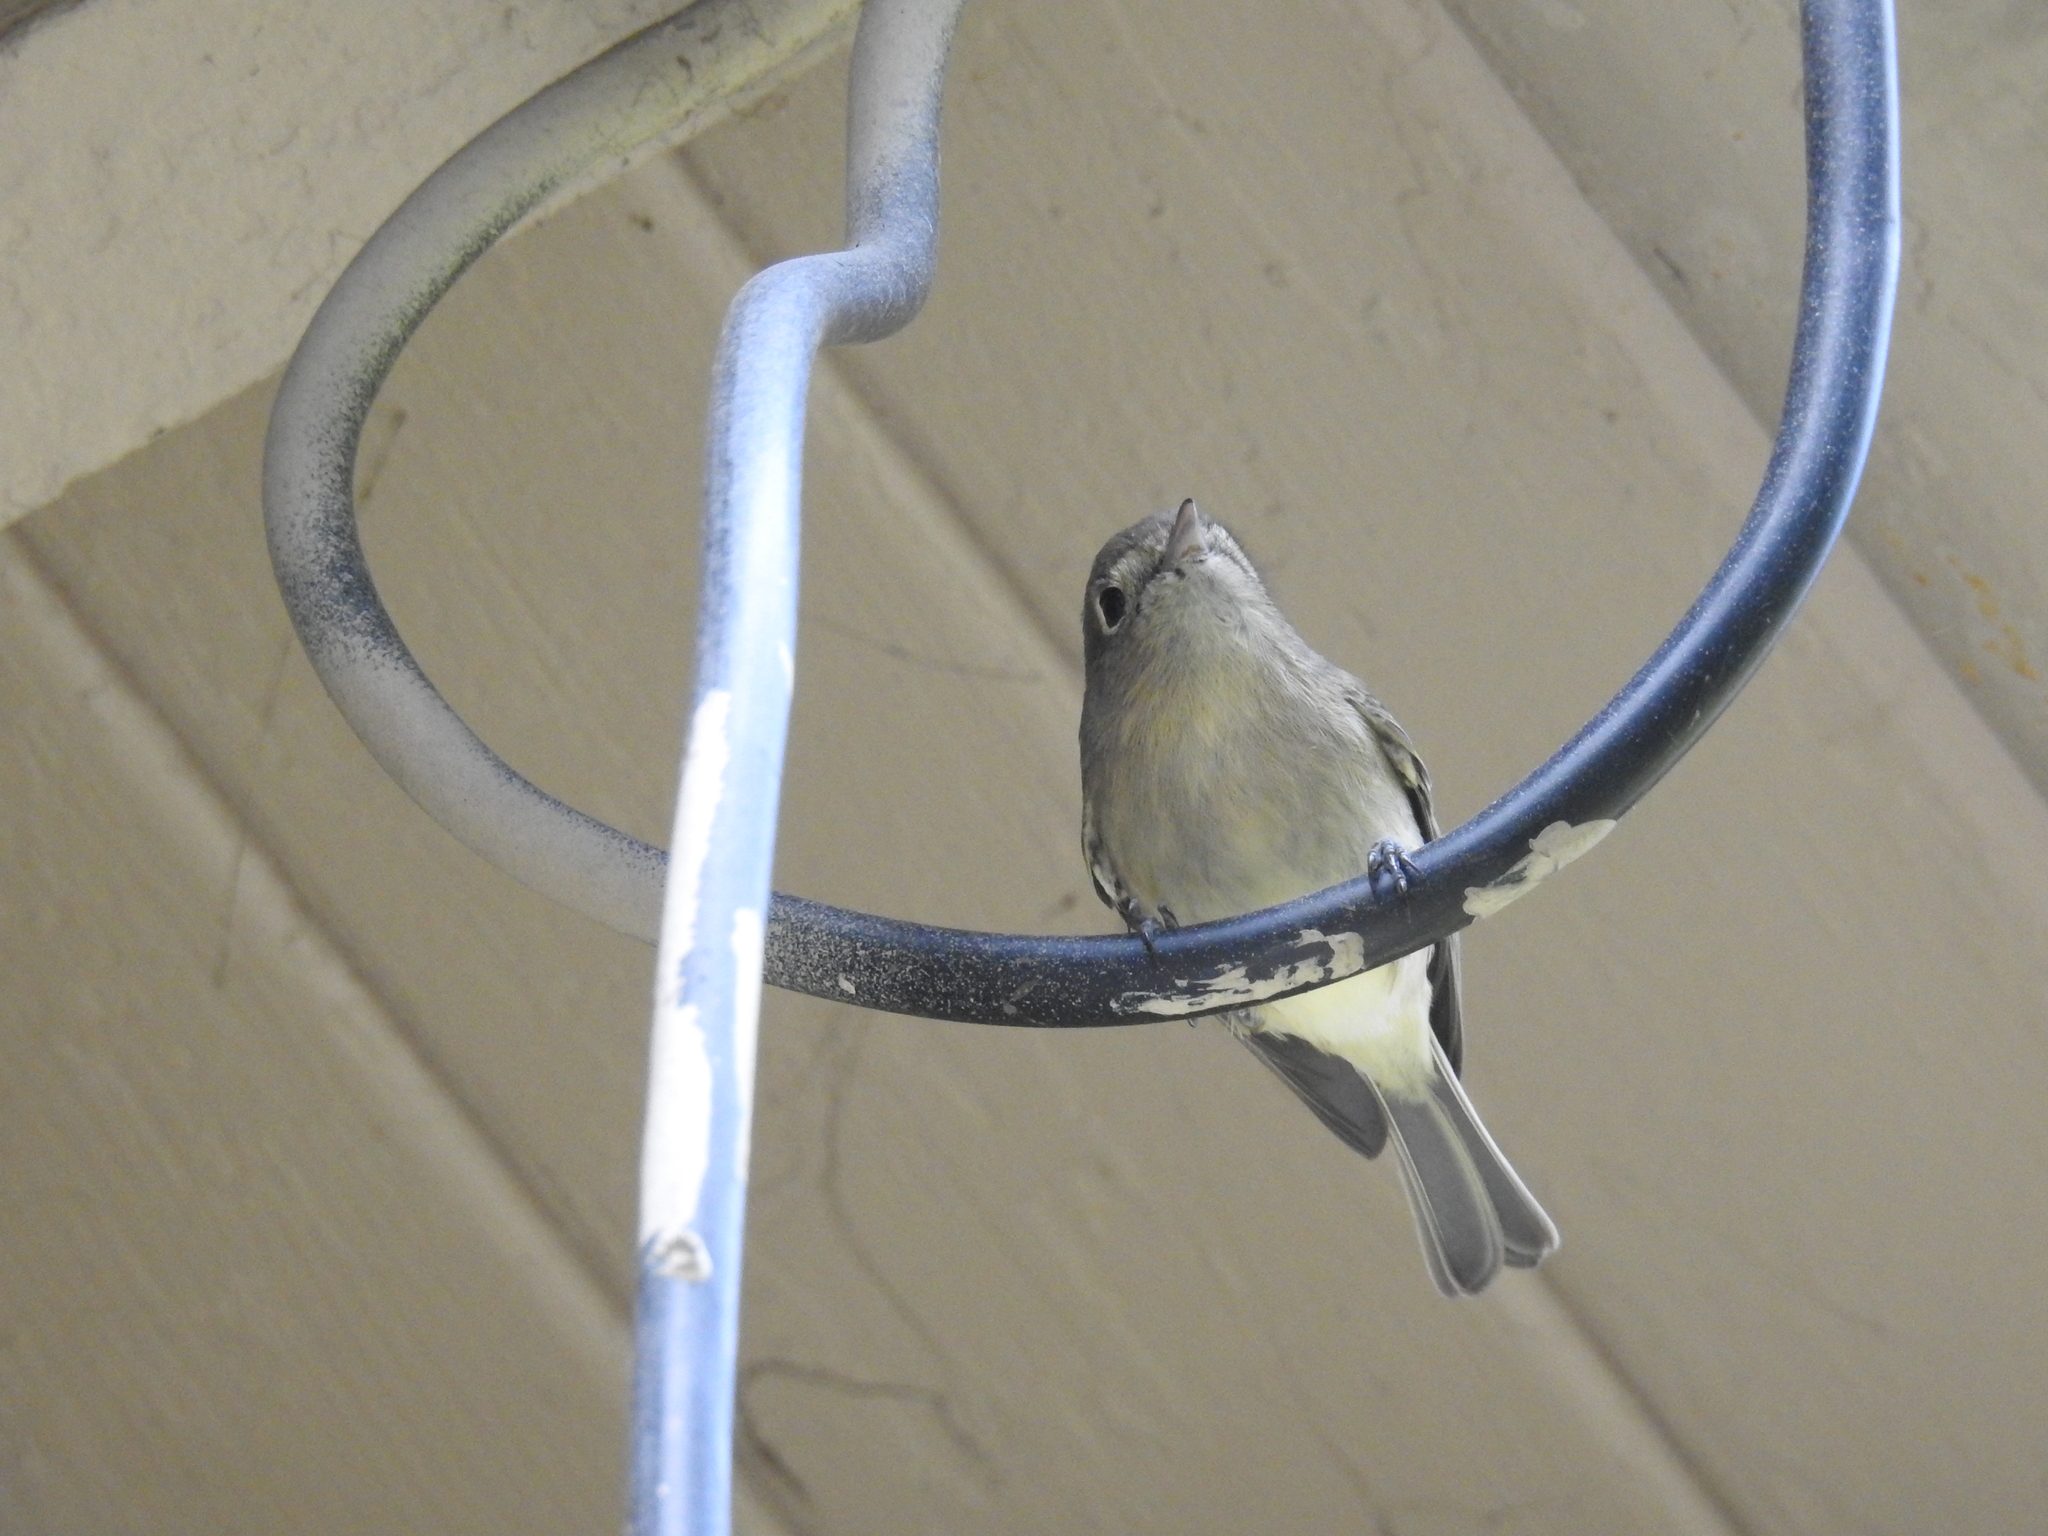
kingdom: Animalia
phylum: Chordata
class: Aves
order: Passeriformes
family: Vireonidae
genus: Vireo
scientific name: Vireo huttoni
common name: Hutton's vireo
